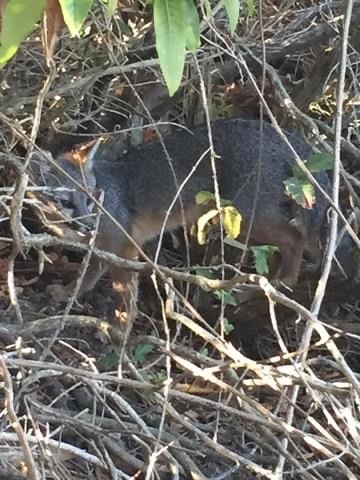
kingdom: Animalia
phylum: Chordata
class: Mammalia
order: Carnivora
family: Canidae
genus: Urocyon
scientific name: Urocyon cinereoargenteus
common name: Gray fox
